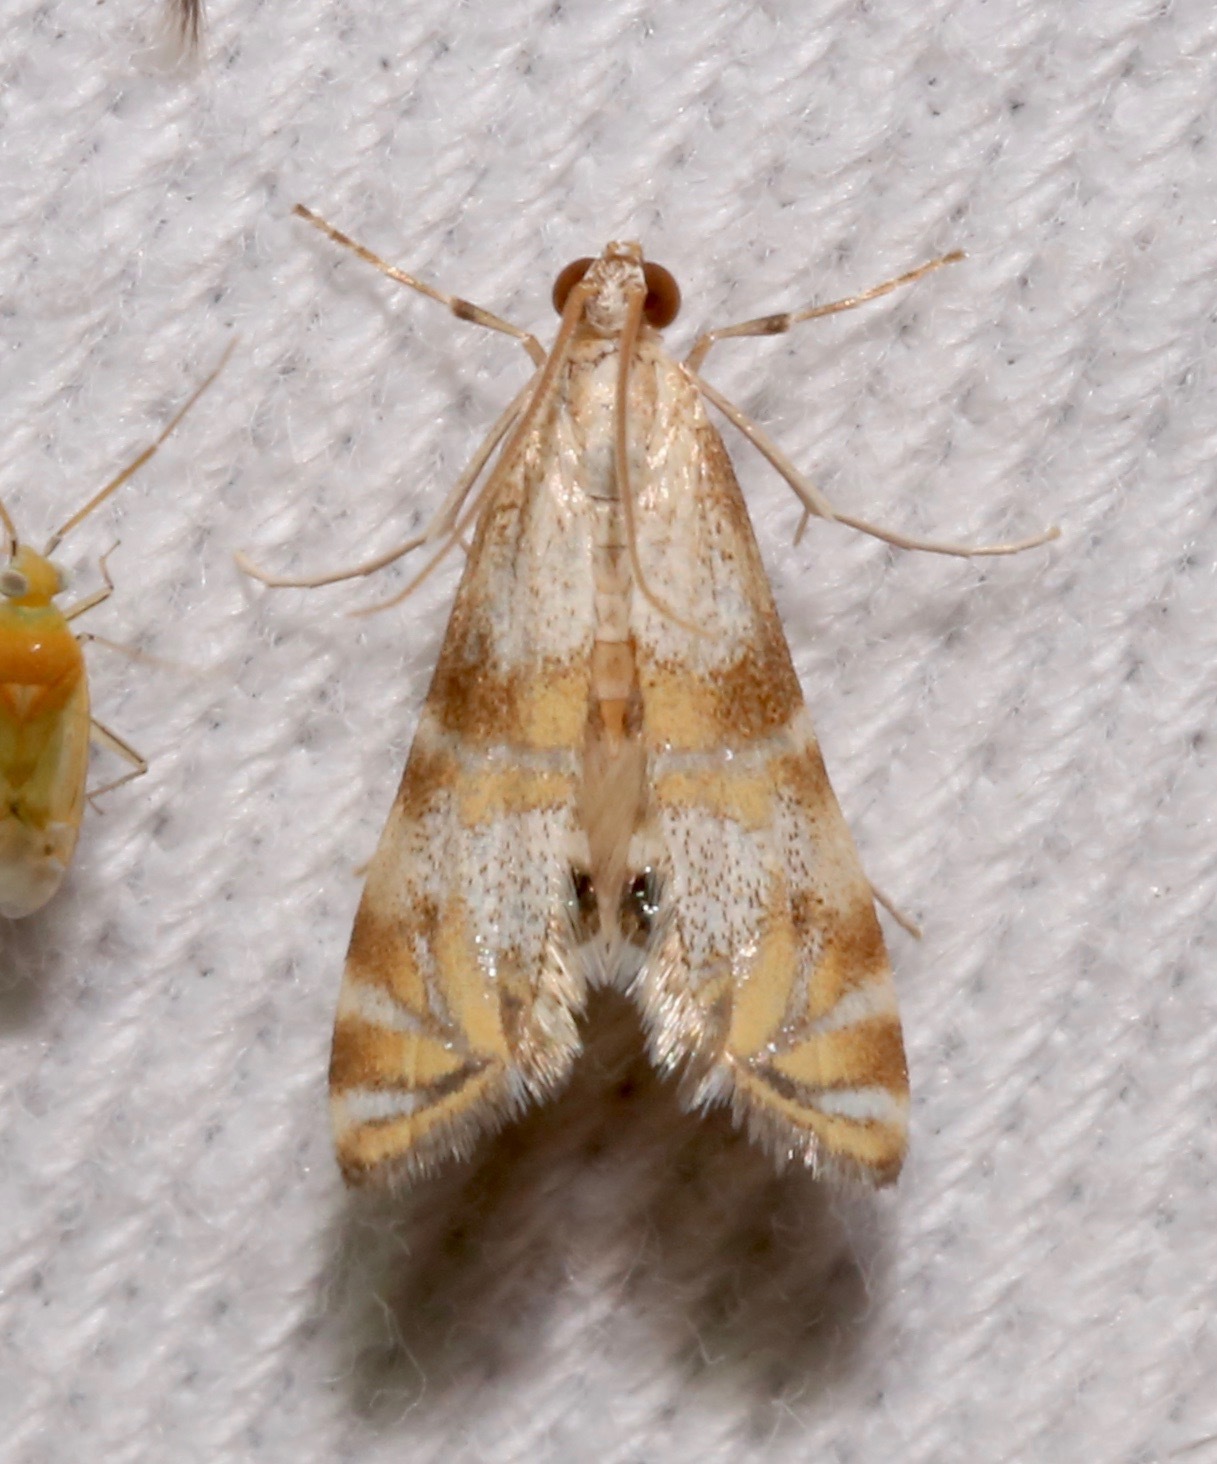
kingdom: Animalia
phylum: Arthropoda
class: Insecta
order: Lepidoptera
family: Crambidae
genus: Petrophila
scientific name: Petrophila kearfottalis
